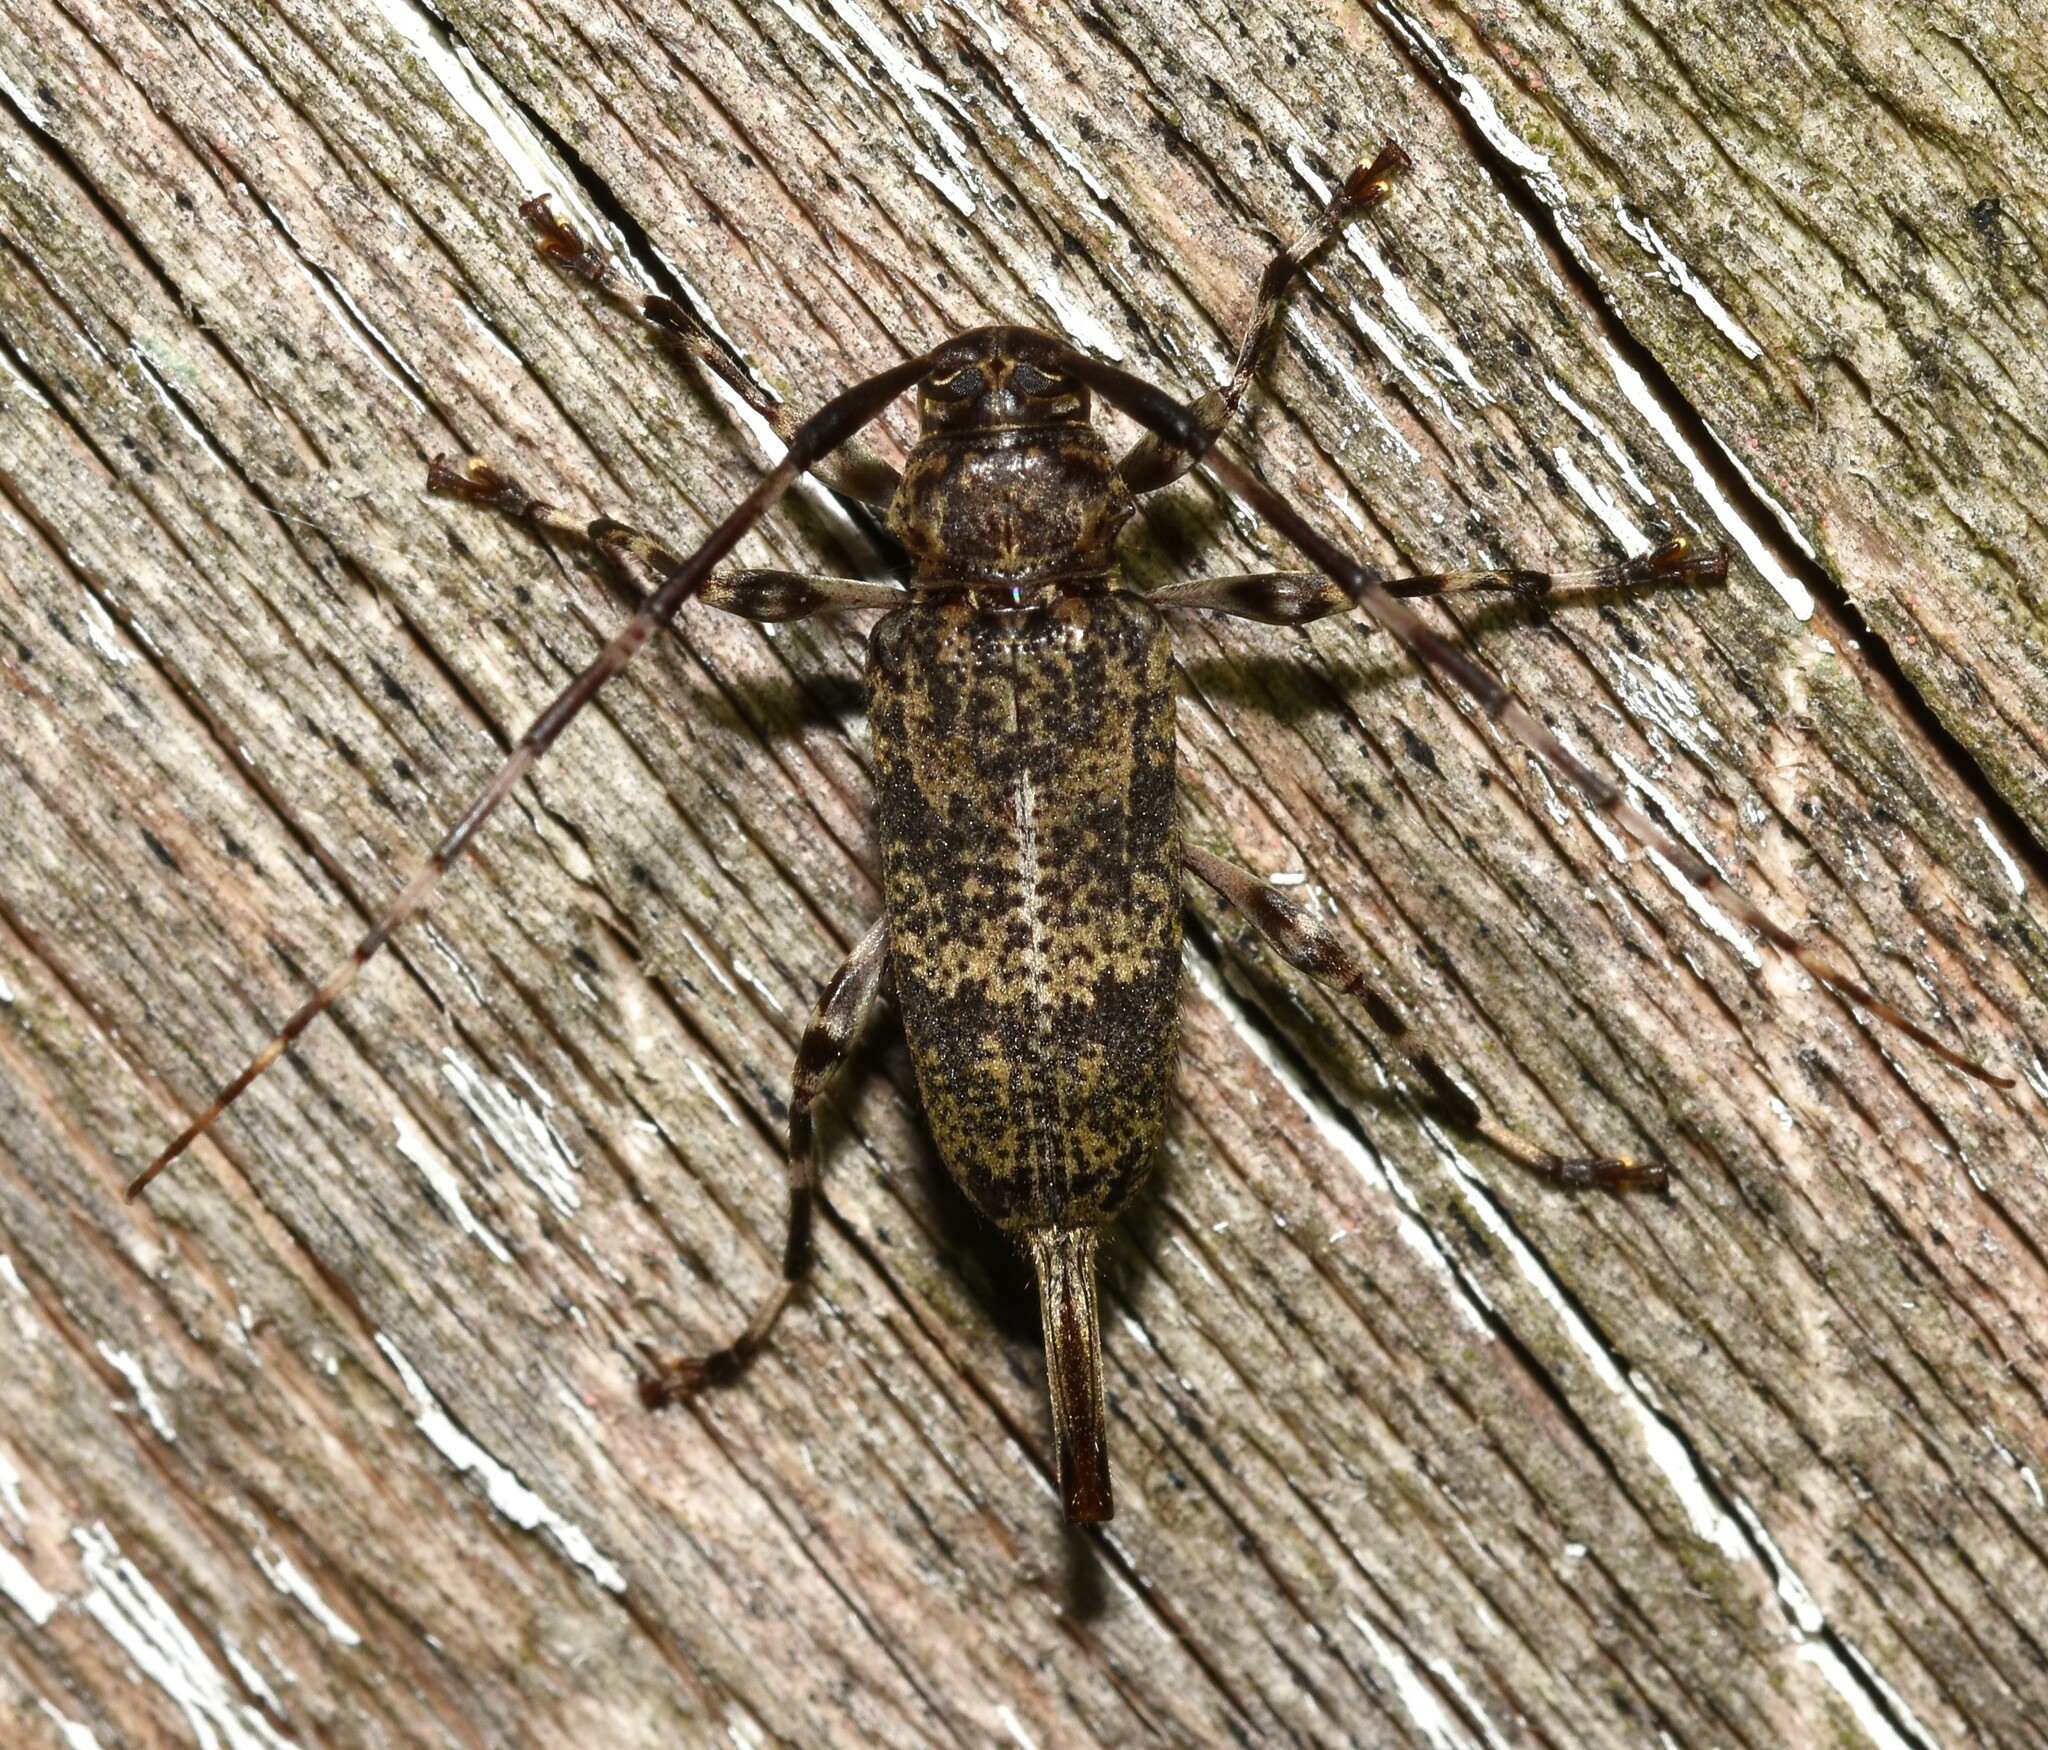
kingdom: Animalia
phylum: Arthropoda
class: Insecta
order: Coleoptera
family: Cerambycidae
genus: Graphisurus
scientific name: Graphisurus fasciatus
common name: Banded graphisurus
